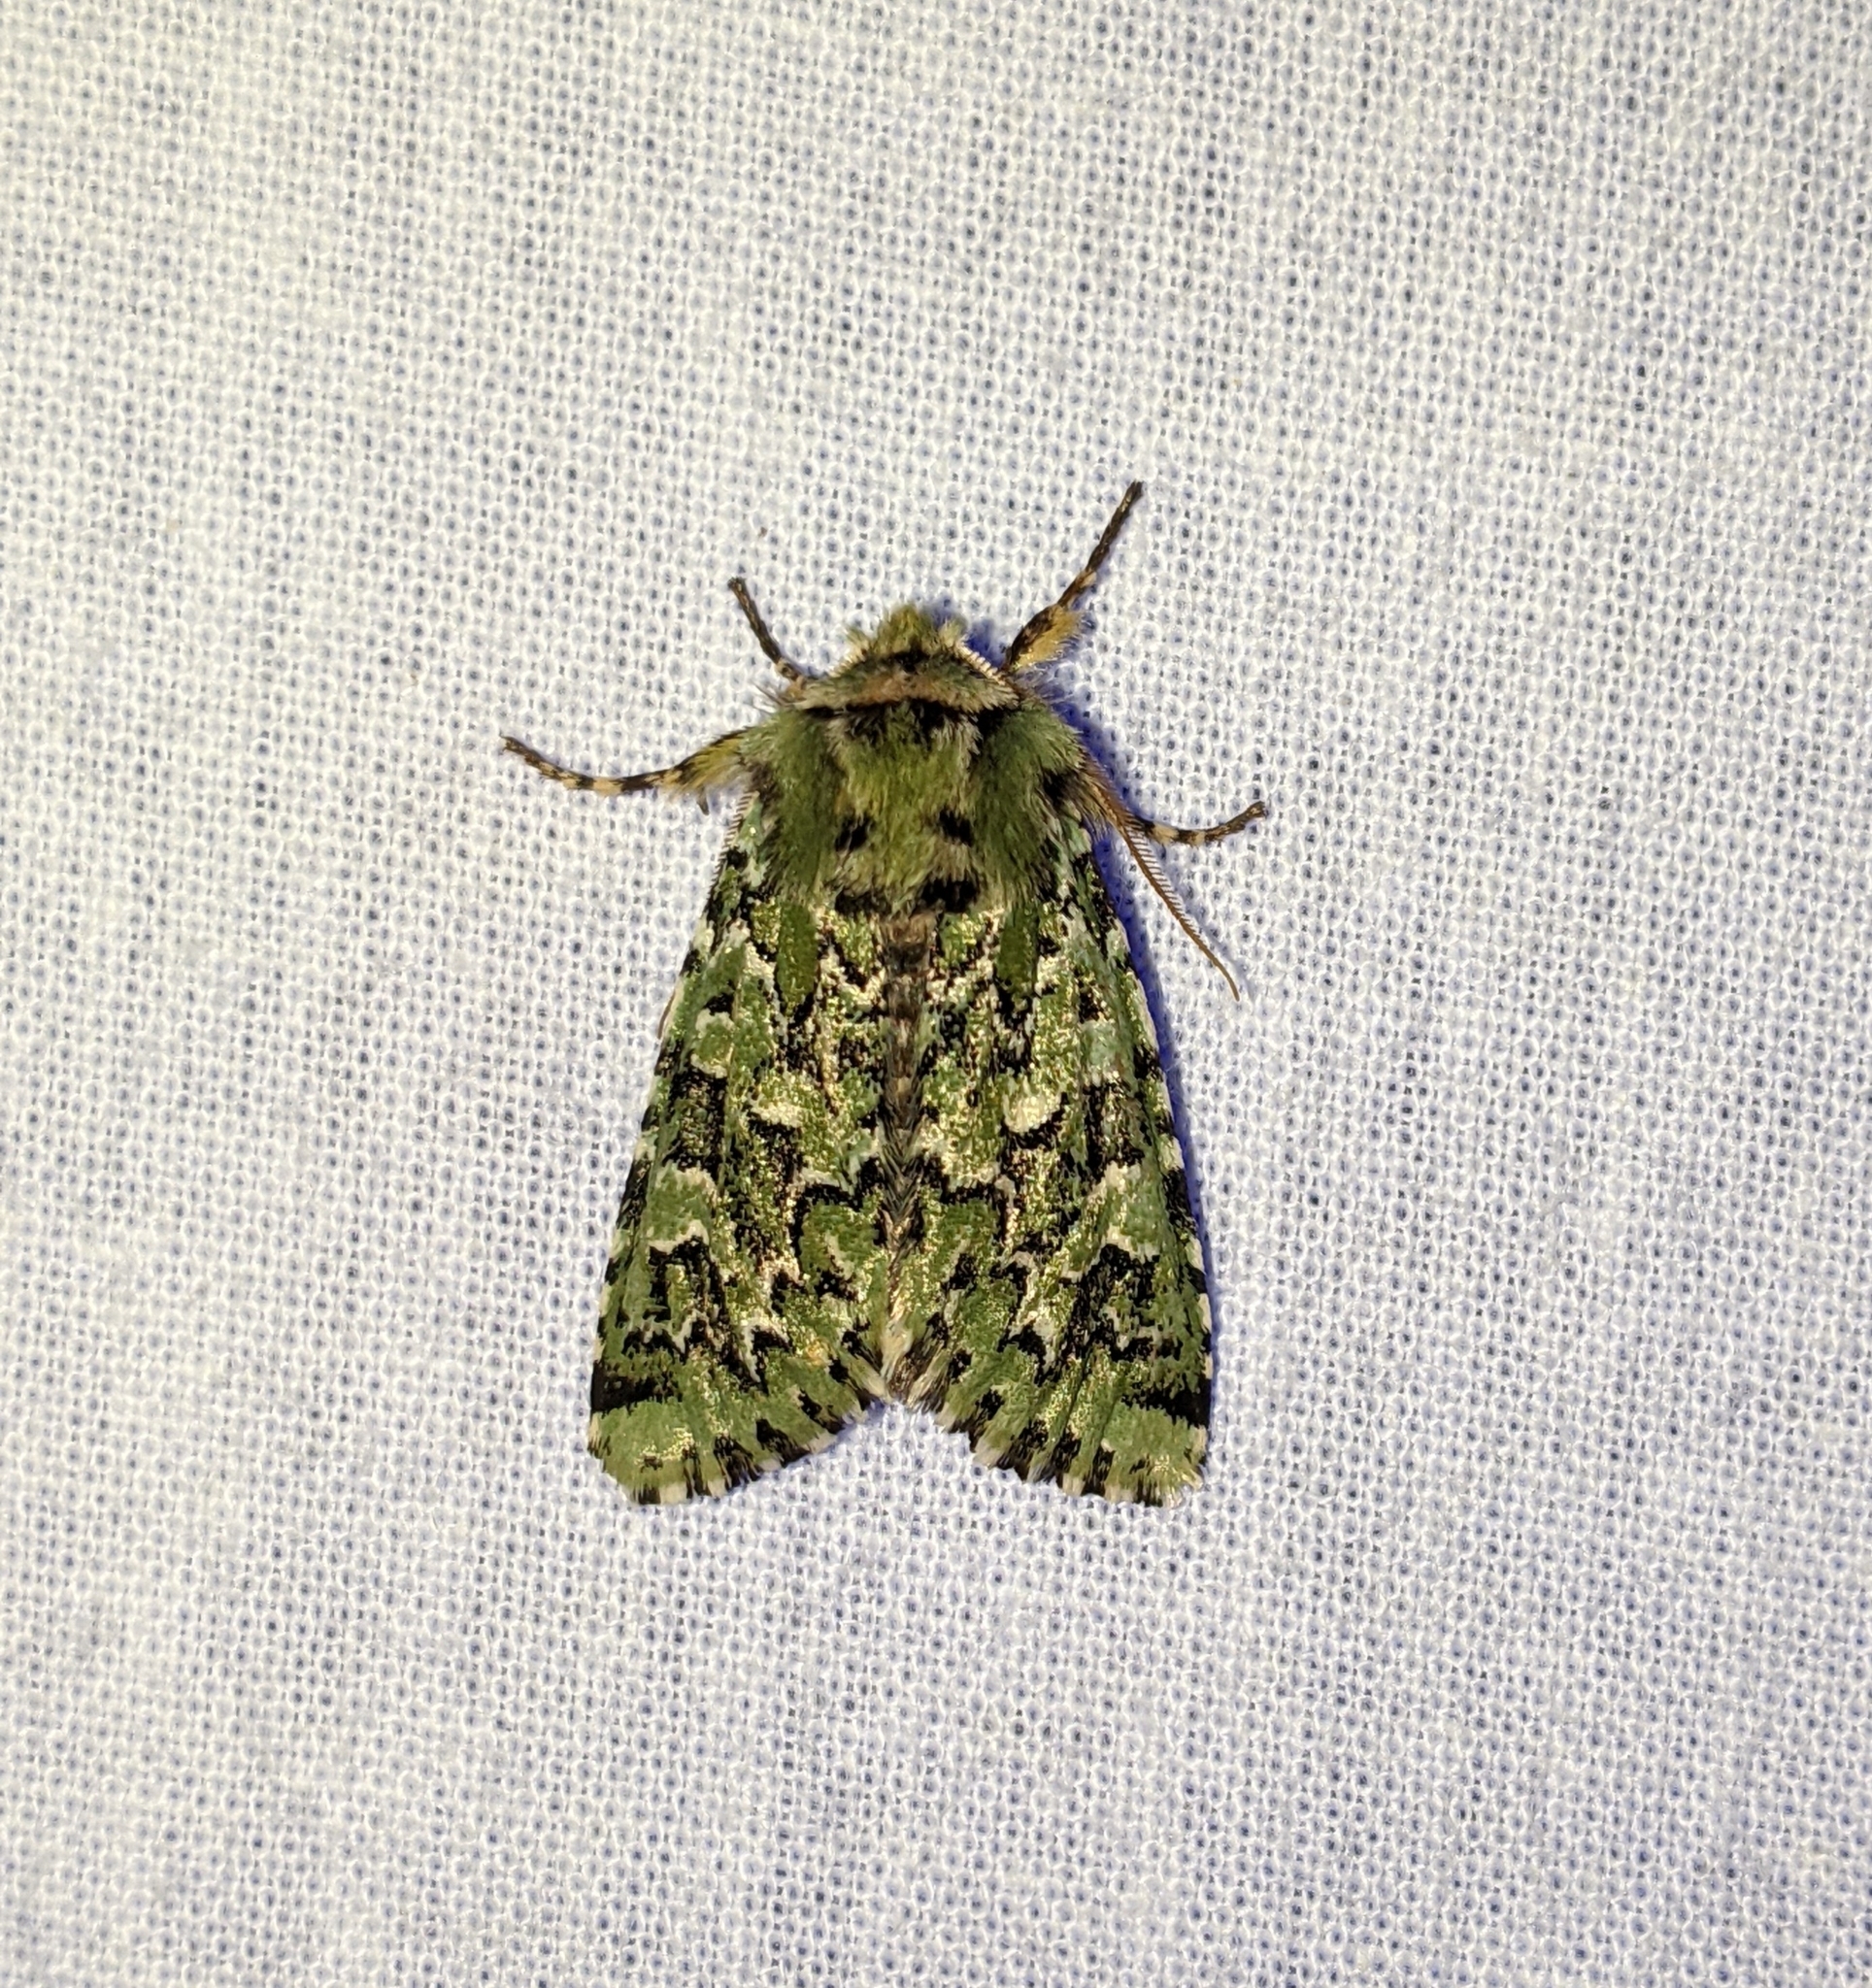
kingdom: Animalia
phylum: Arthropoda
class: Insecta
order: Lepidoptera
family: Noctuidae
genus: Feralia
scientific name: Feralia comstocki
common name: Comstock's sallow
